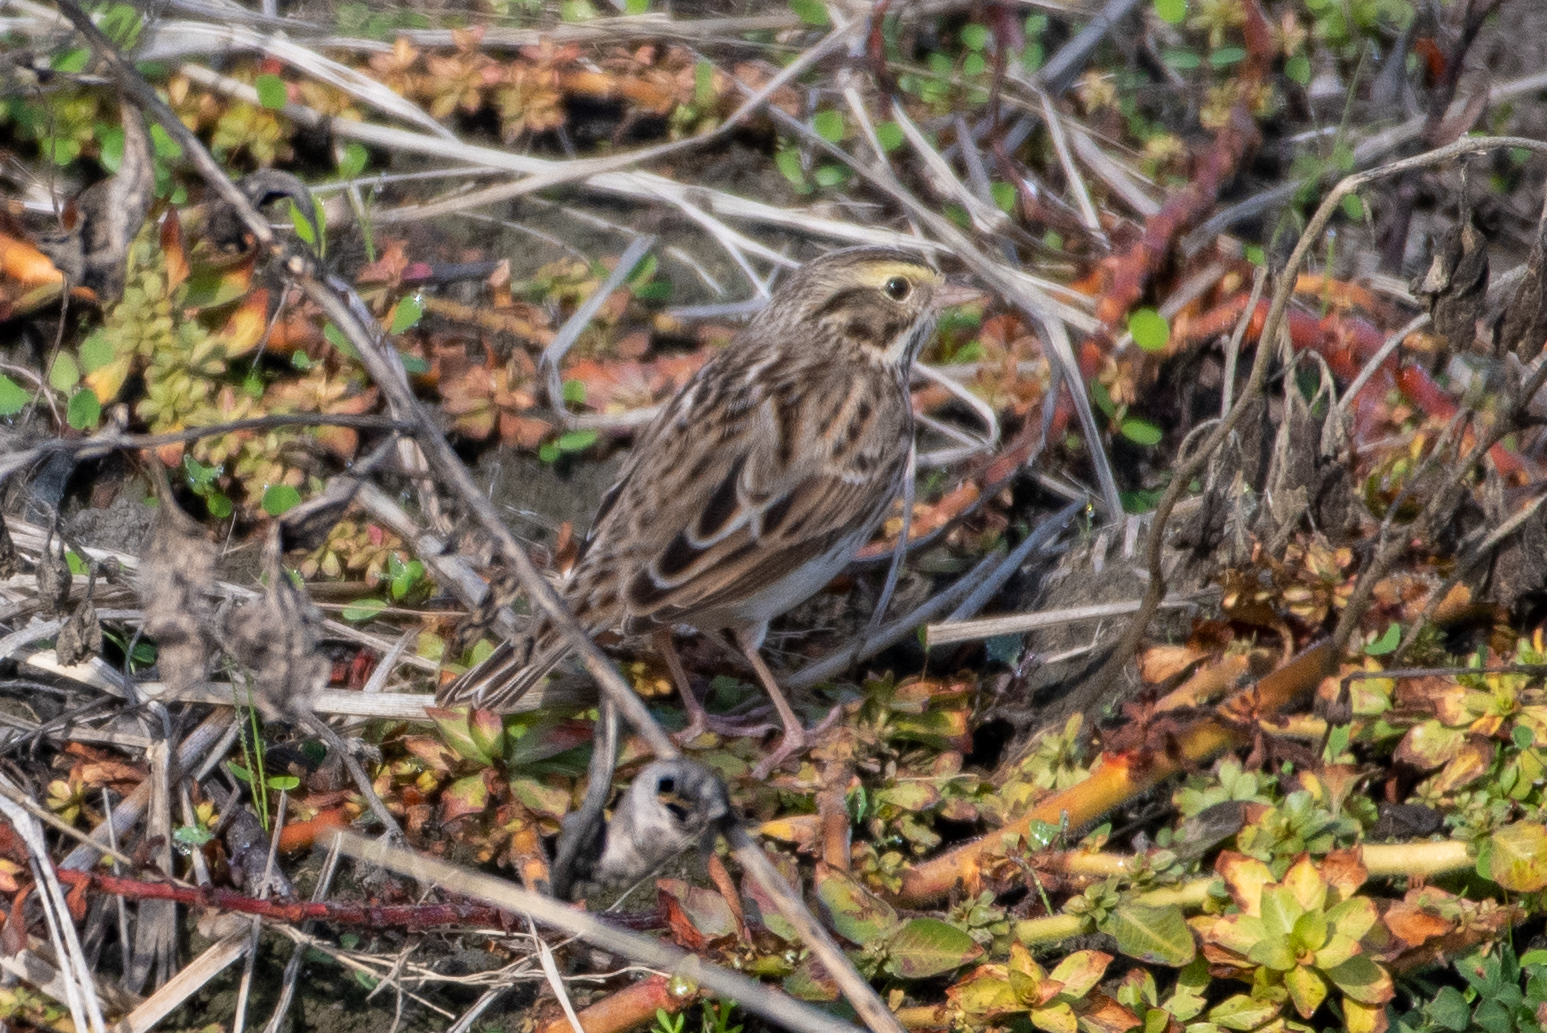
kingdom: Animalia
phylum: Chordata
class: Aves
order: Passeriformes
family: Passerellidae
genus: Passerculus
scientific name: Passerculus sandwichensis
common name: Savannah sparrow
